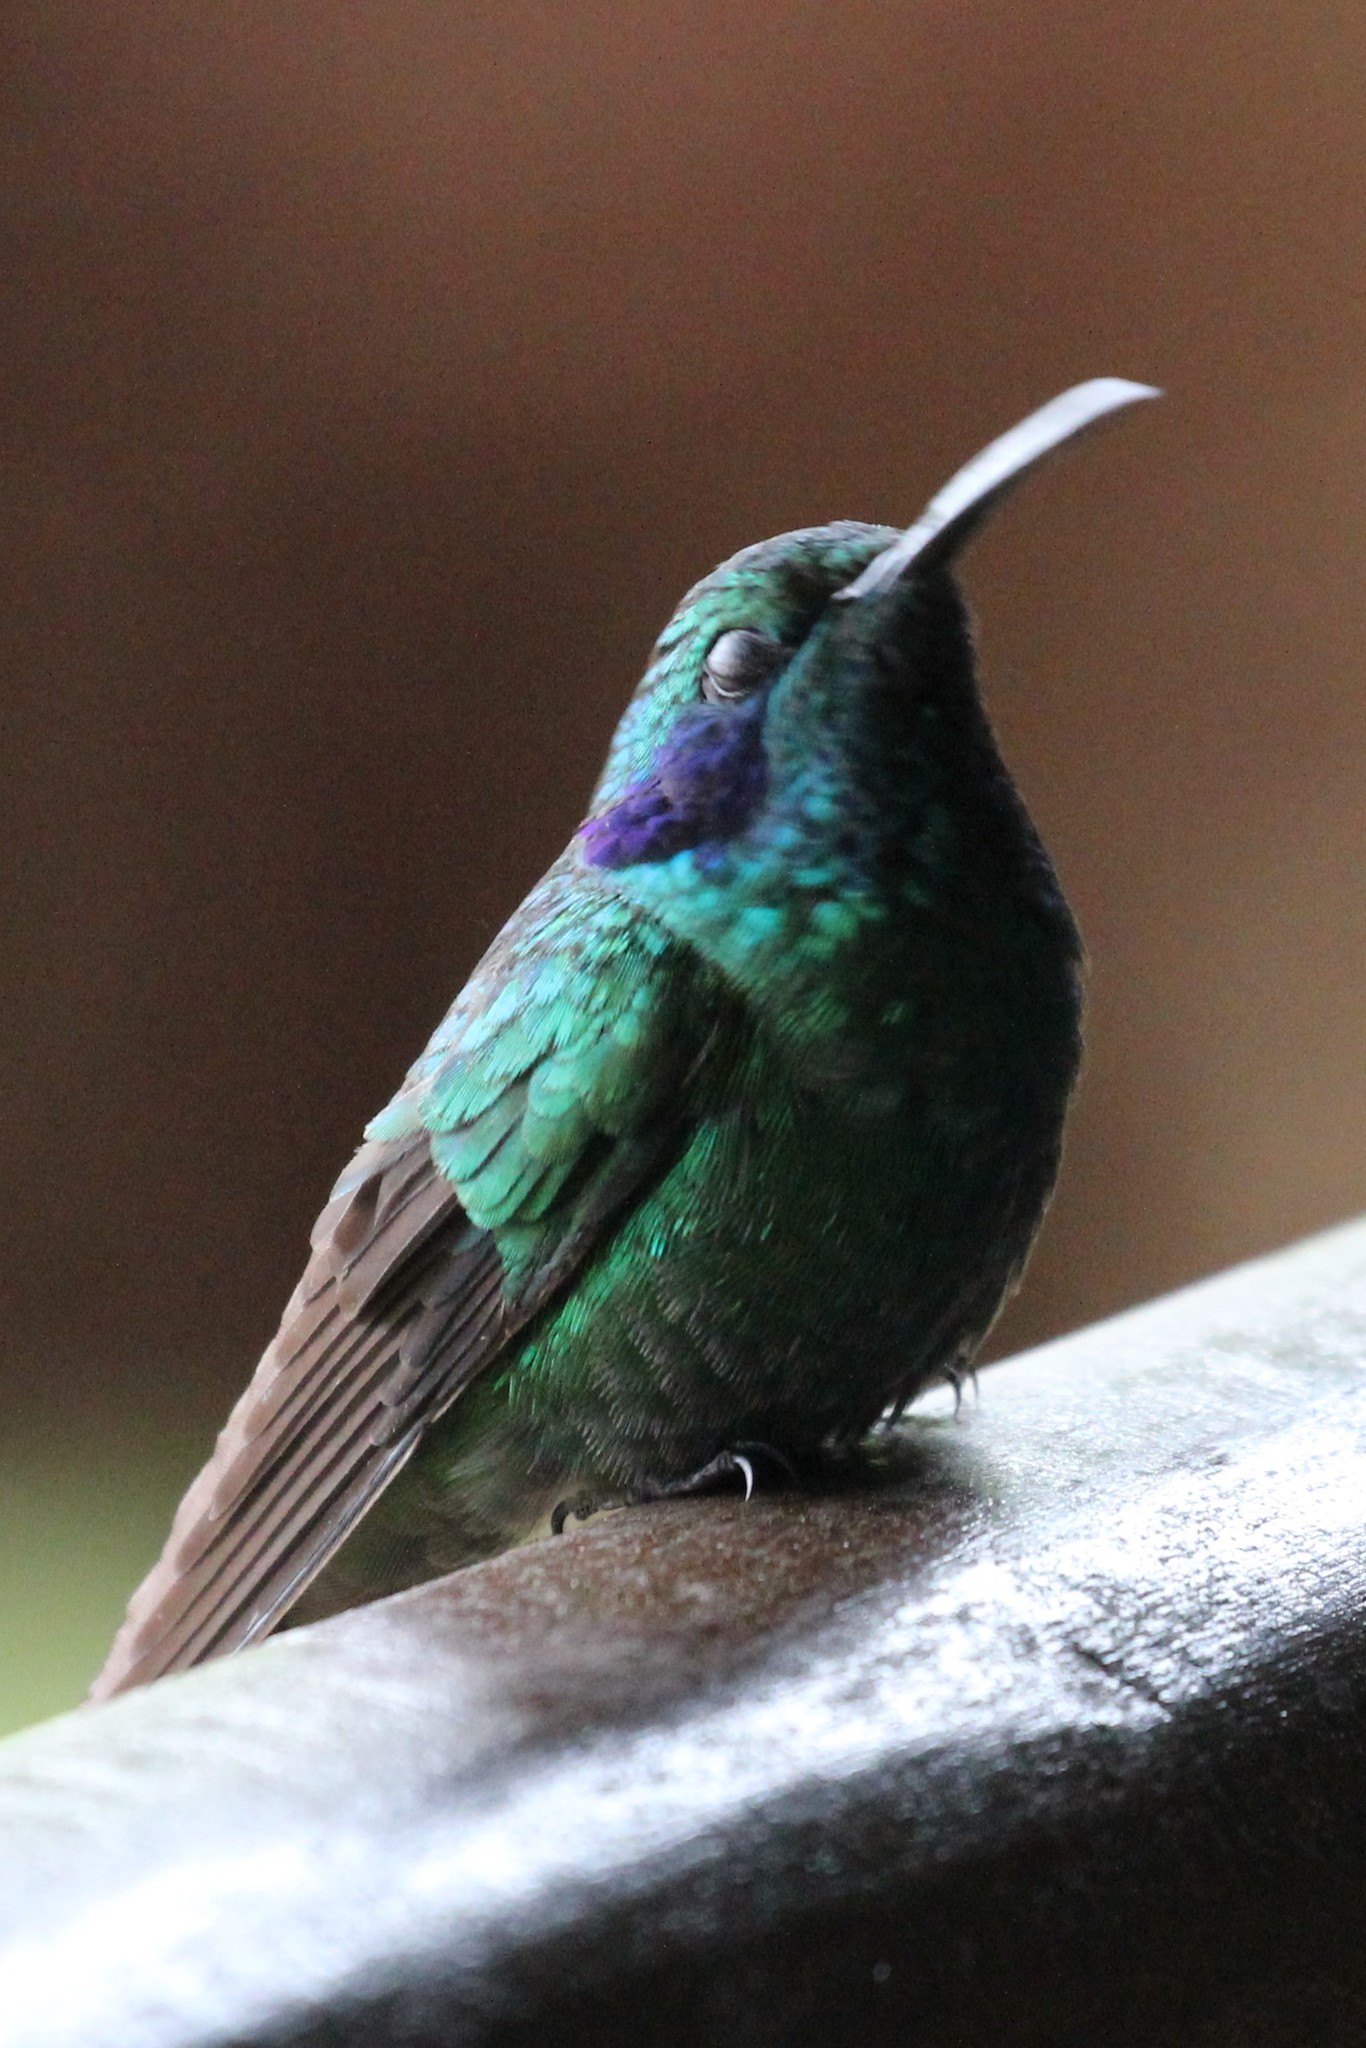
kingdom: Animalia
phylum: Chordata
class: Aves
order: Apodiformes
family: Trochilidae
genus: Colibri
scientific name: Colibri cyanotus
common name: Lesser violetear
